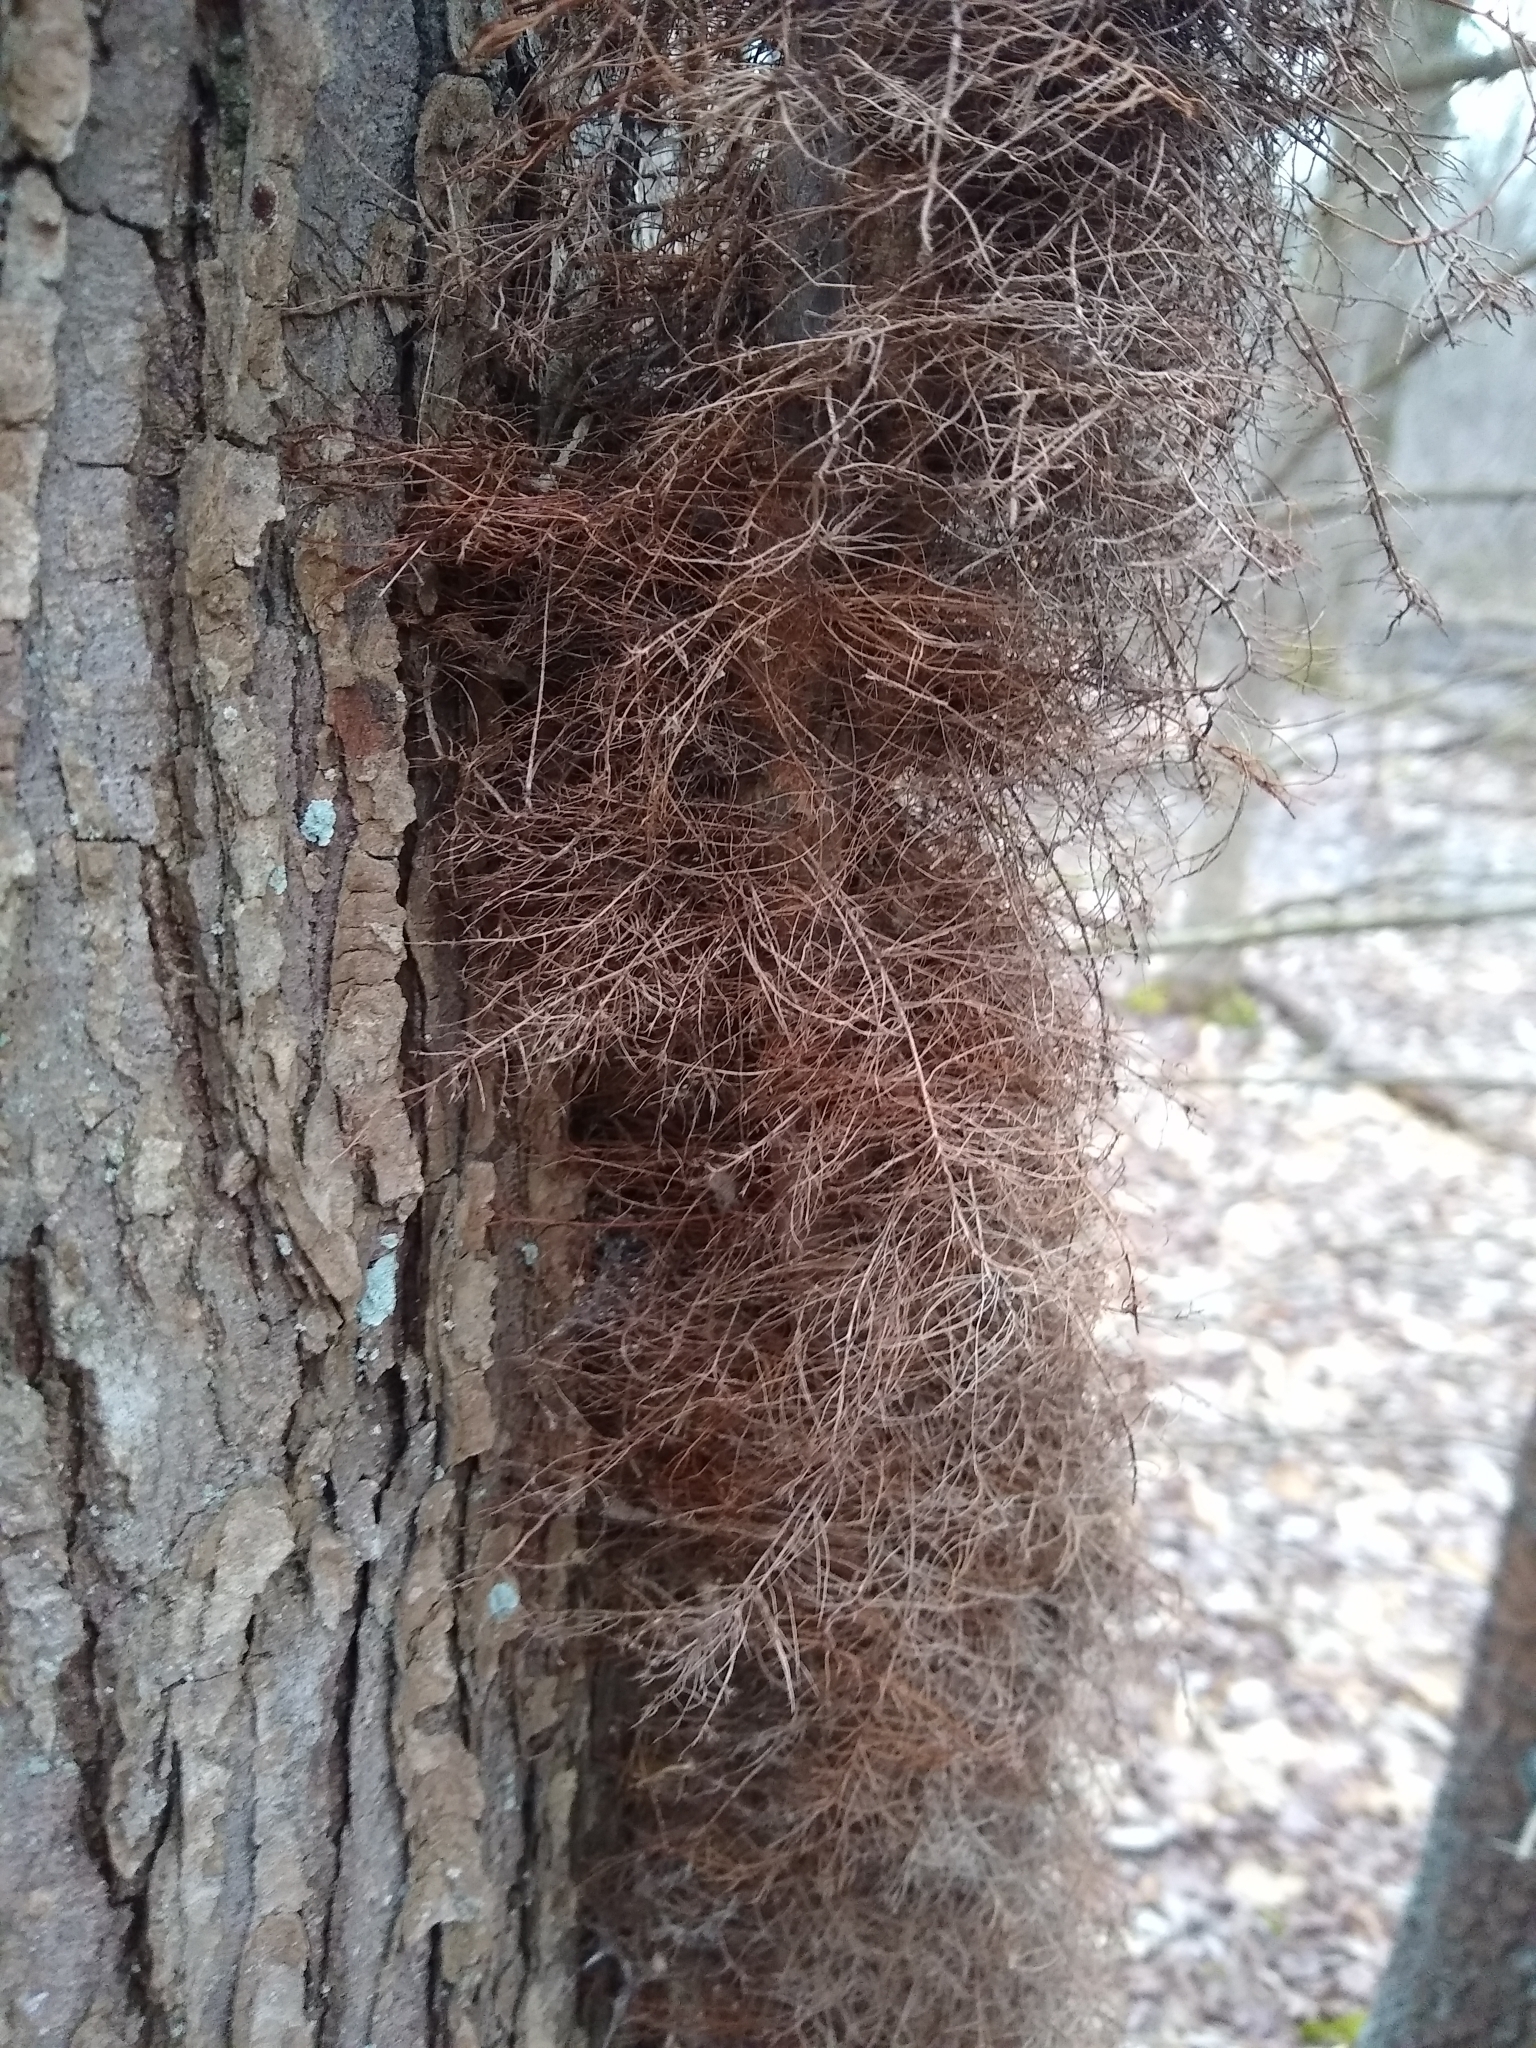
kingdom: Plantae
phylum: Tracheophyta
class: Magnoliopsida
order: Sapindales
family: Anacardiaceae
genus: Toxicodendron
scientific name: Toxicodendron radicans
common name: Poison ivy
